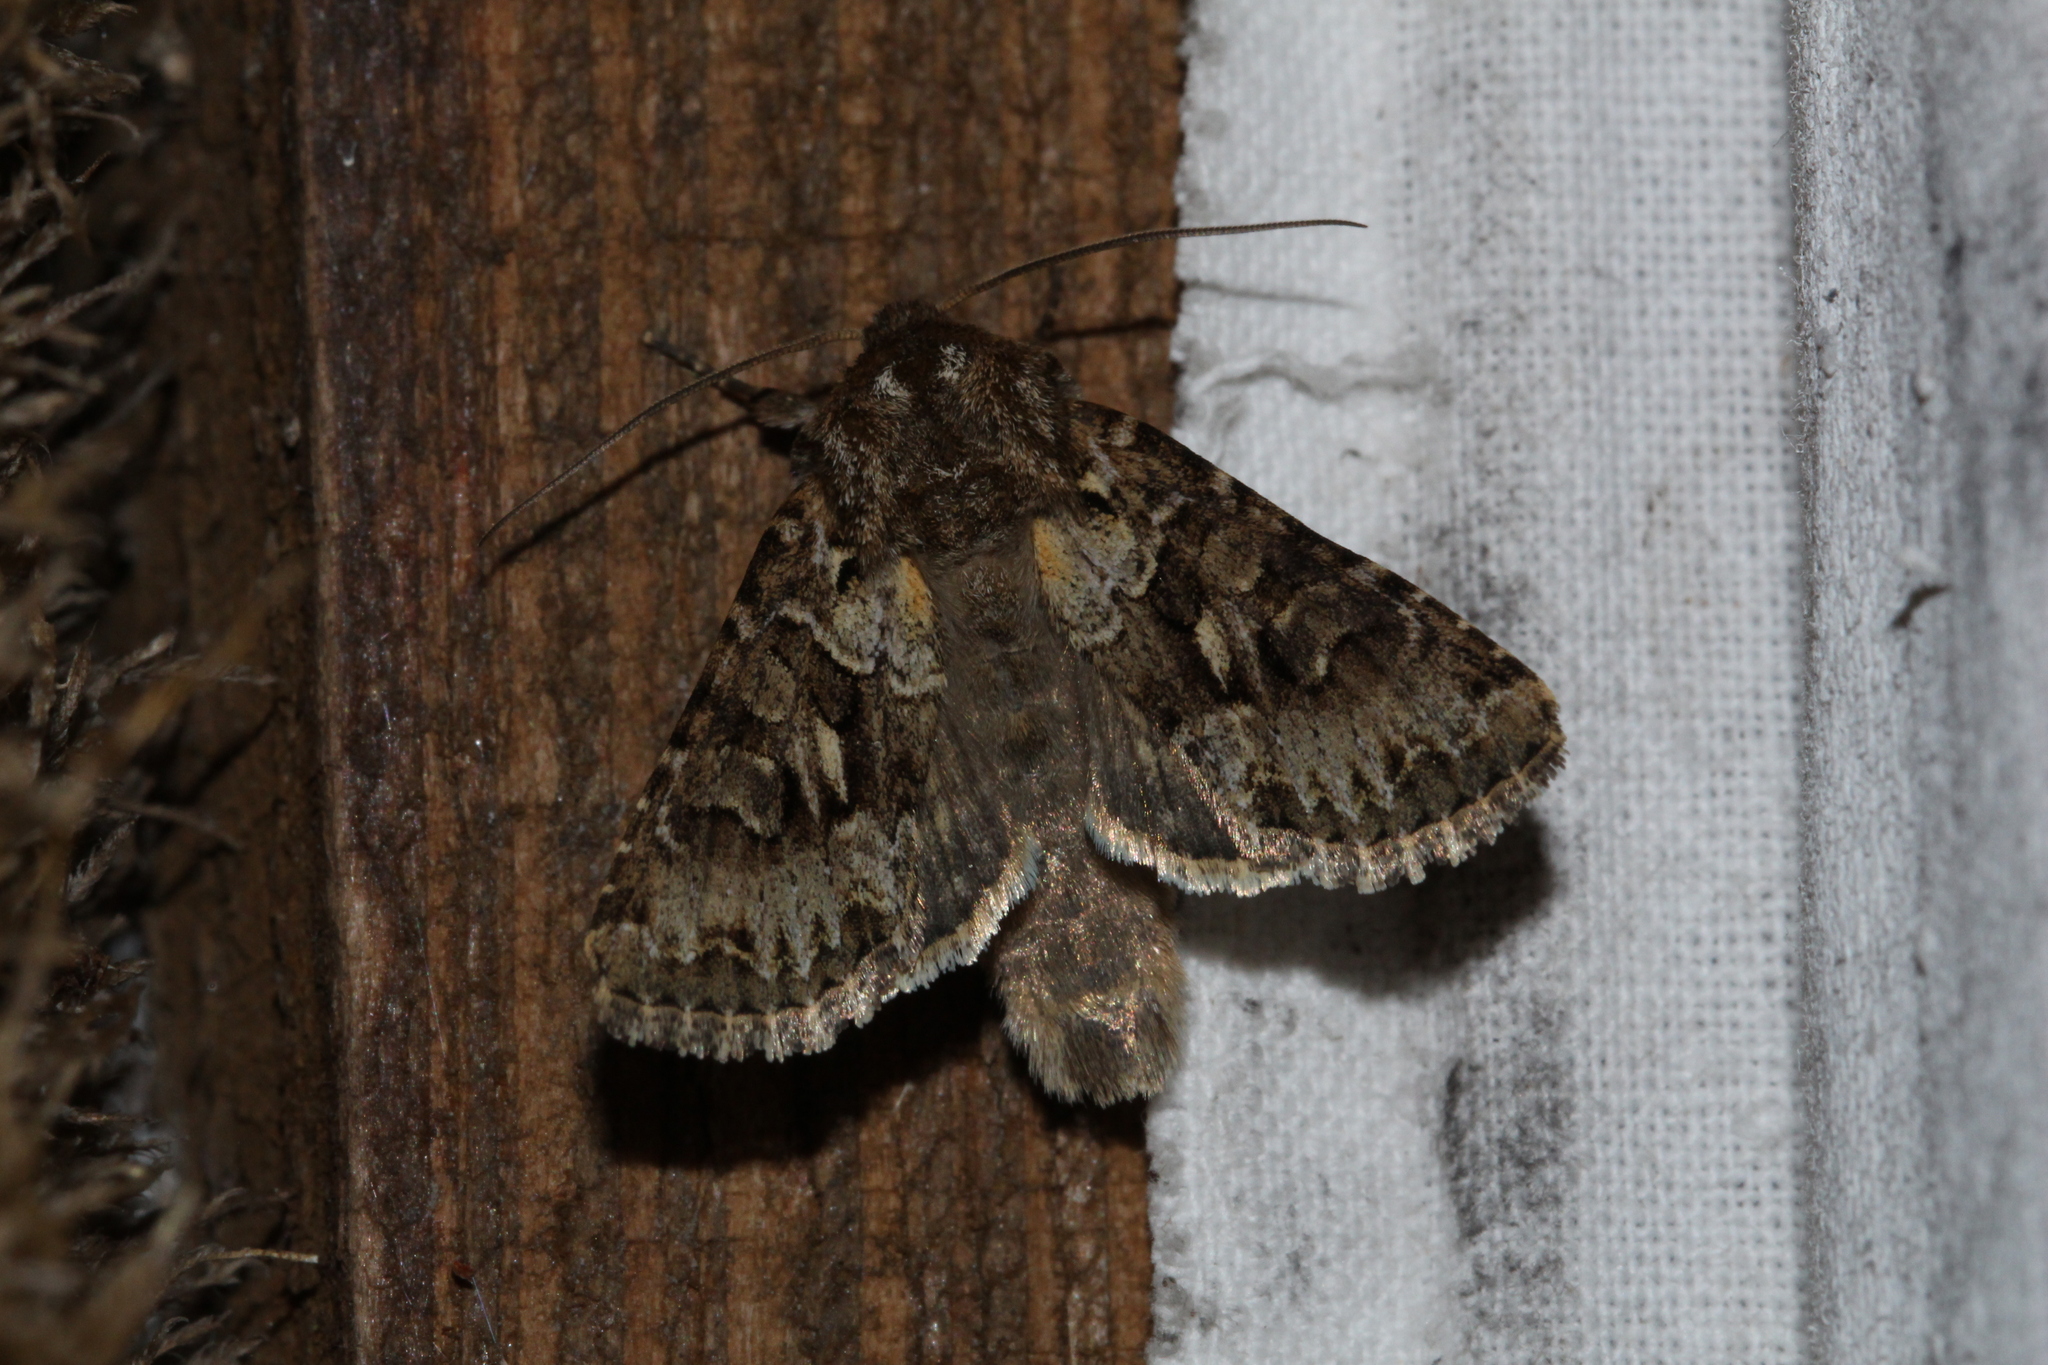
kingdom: Animalia
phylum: Arthropoda
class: Insecta
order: Lepidoptera
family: Noctuidae
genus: Hada
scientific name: Hada plebeja
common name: Shears
